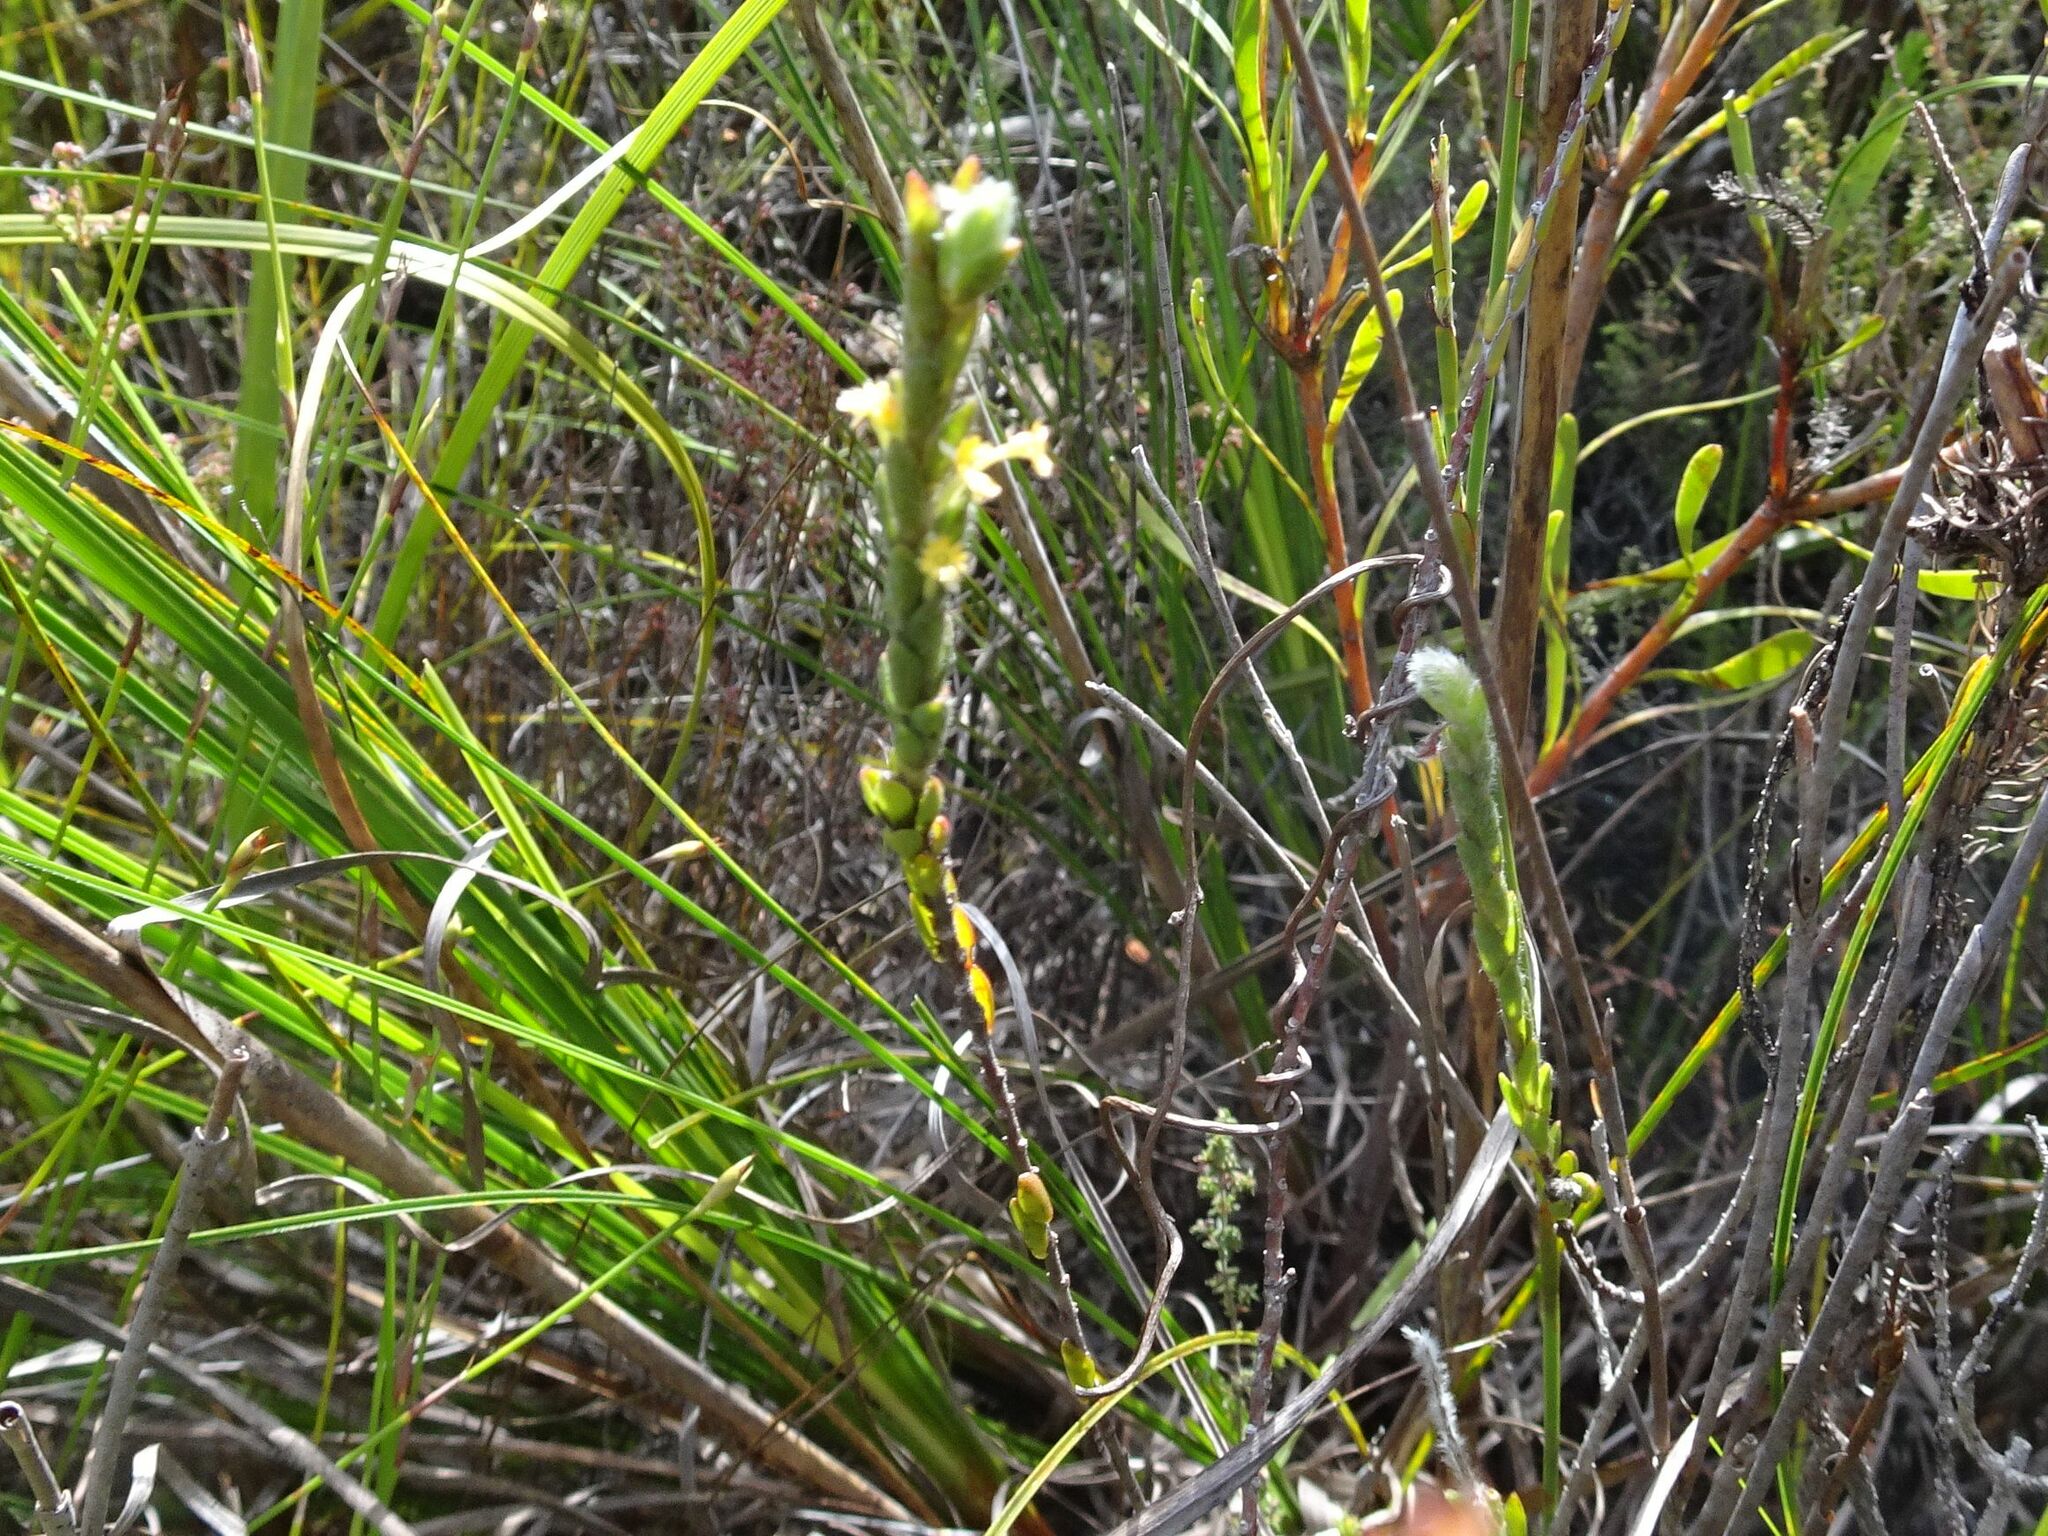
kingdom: Plantae
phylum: Tracheophyta
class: Magnoliopsida
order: Malvales
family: Thymelaeaceae
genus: Struthiola
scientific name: Struthiola tomentosa
